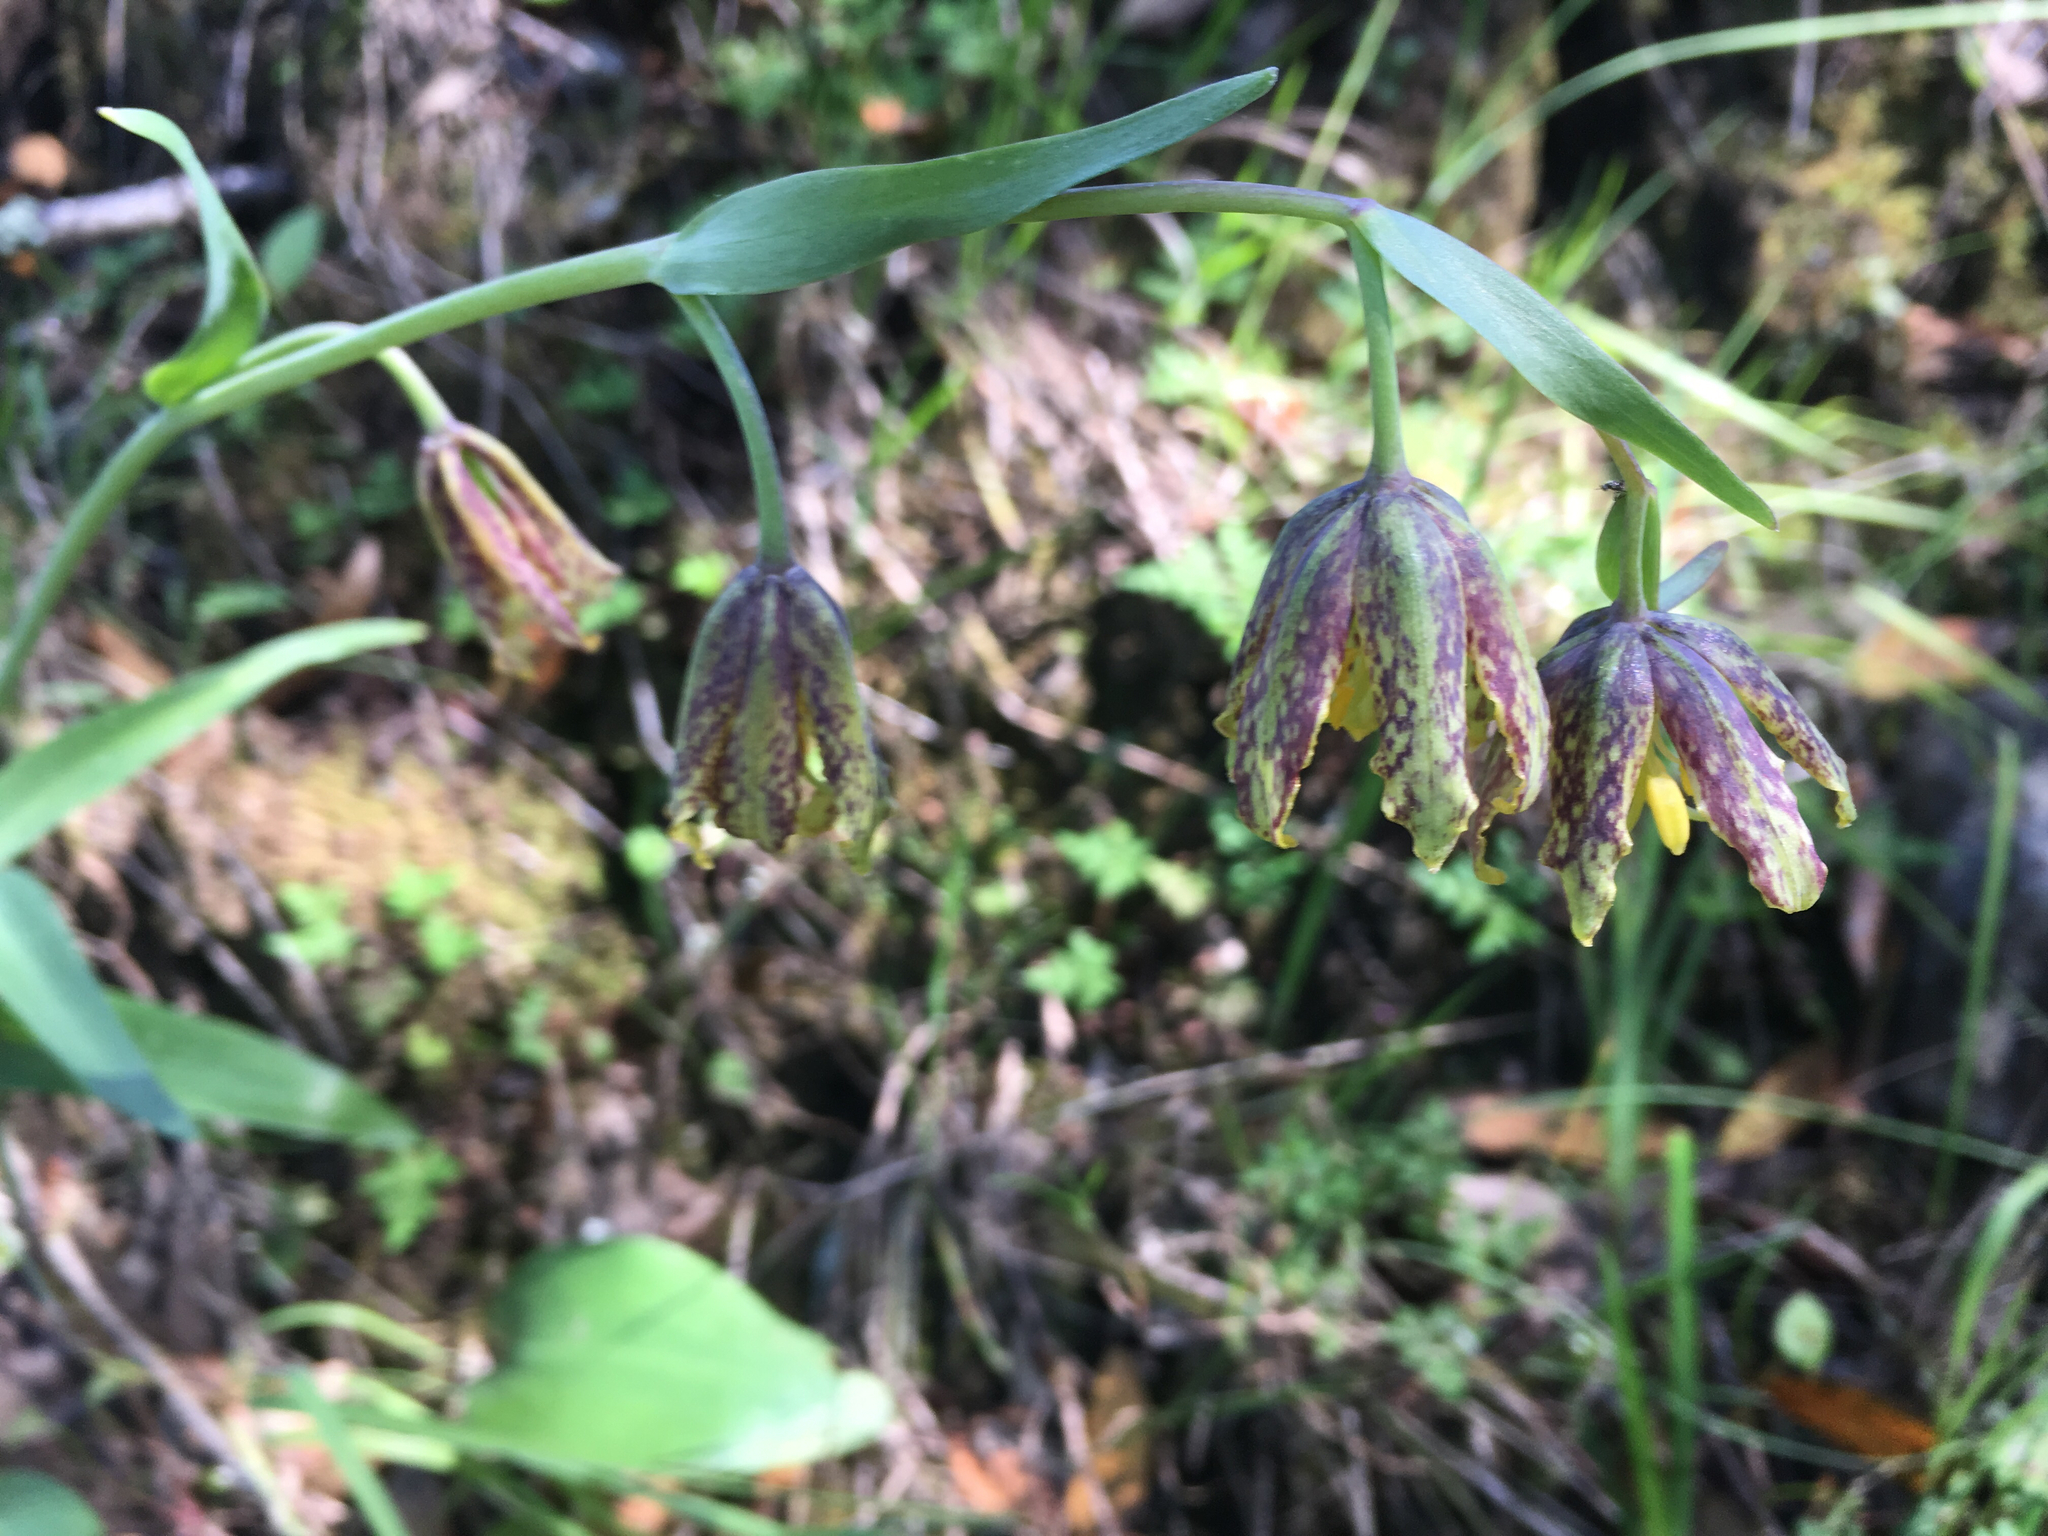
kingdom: Plantae
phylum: Tracheophyta
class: Liliopsida
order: Liliales
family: Liliaceae
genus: Fritillaria
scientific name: Fritillaria affinis
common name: Ojai fritillary
